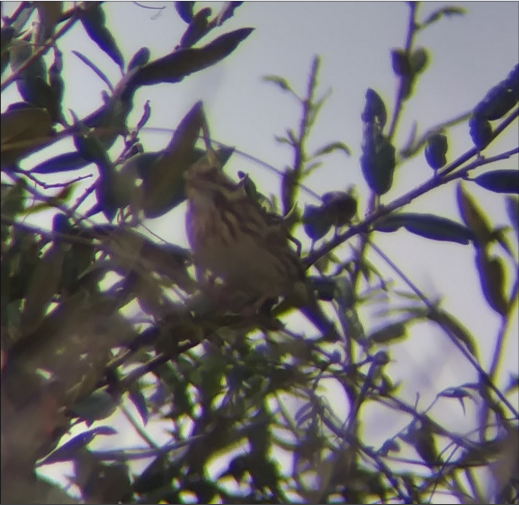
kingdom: Animalia
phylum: Chordata
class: Aves
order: Passeriformes
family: Passerellidae
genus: Pooecetes
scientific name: Pooecetes gramineus
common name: Vesper sparrow
